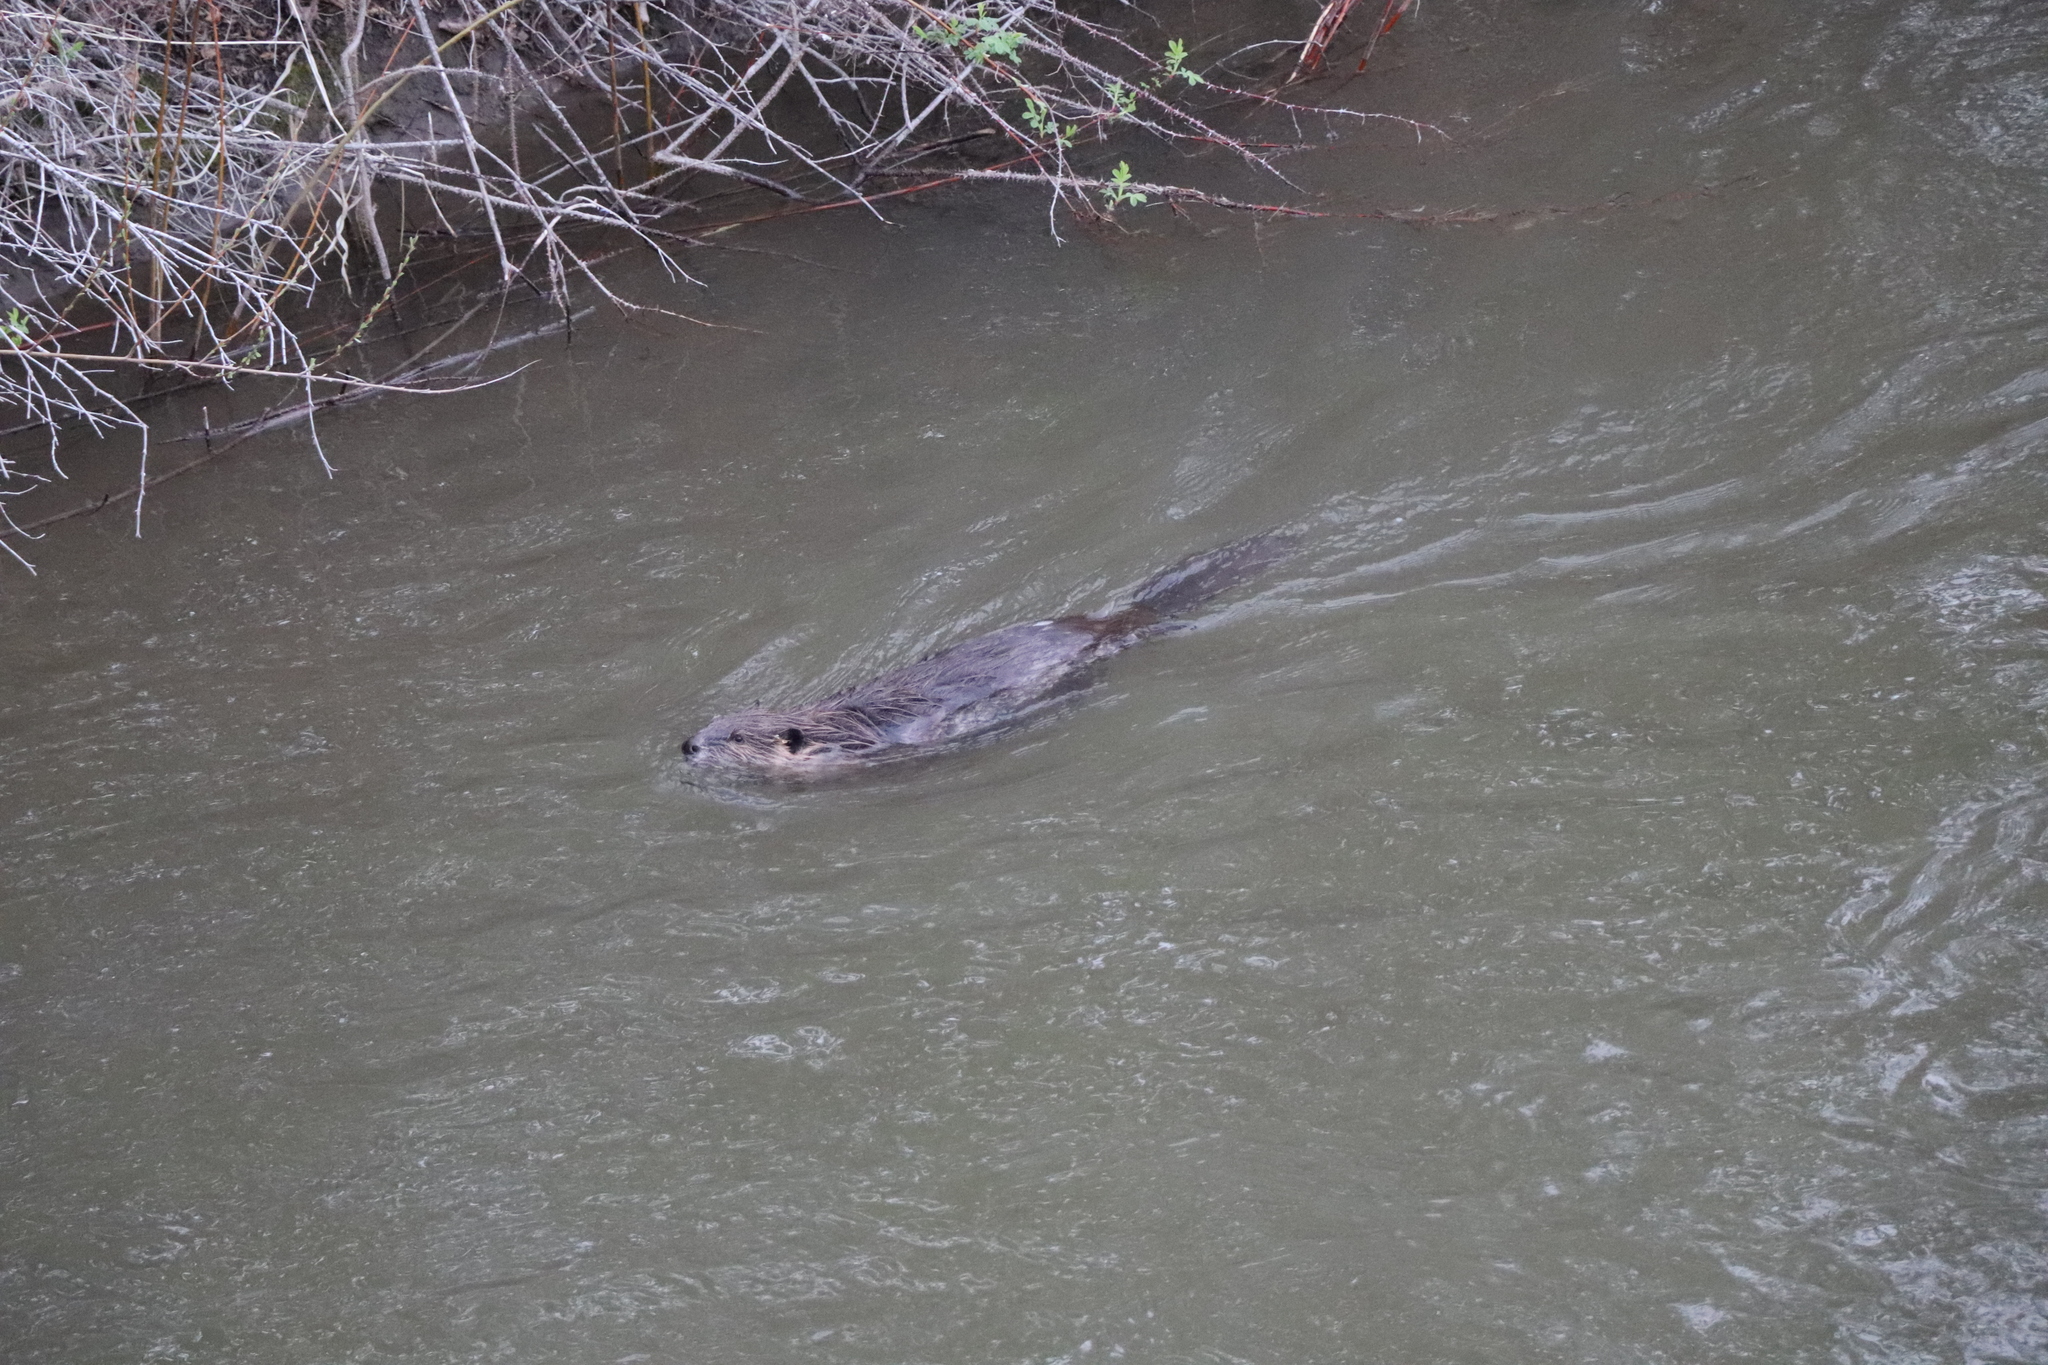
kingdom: Animalia
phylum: Chordata
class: Mammalia
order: Rodentia
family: Castoridae
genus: Castor
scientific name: Castor canadensis
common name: American beaver
